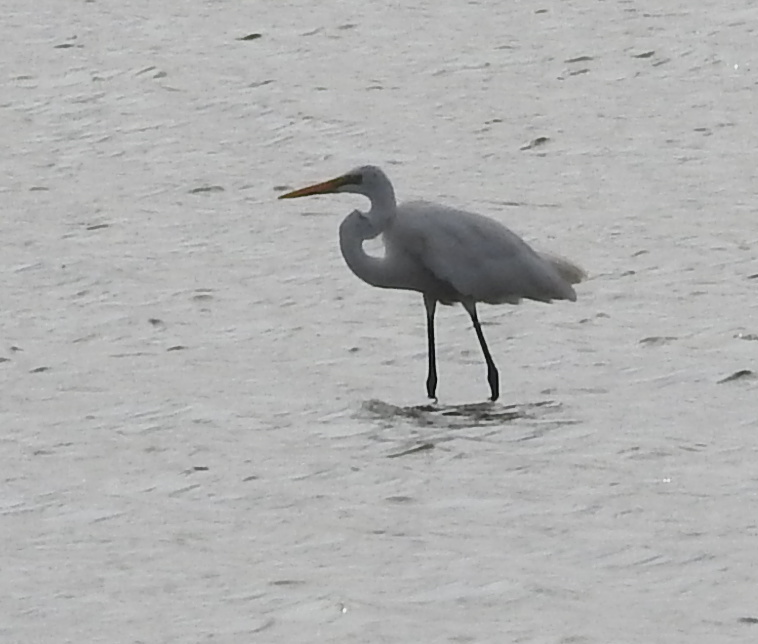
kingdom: Animalia
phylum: Chordata
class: Aves
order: Pelecaniformes
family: Ardeidae
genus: Ardea
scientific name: Ardea alba
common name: Great egret
